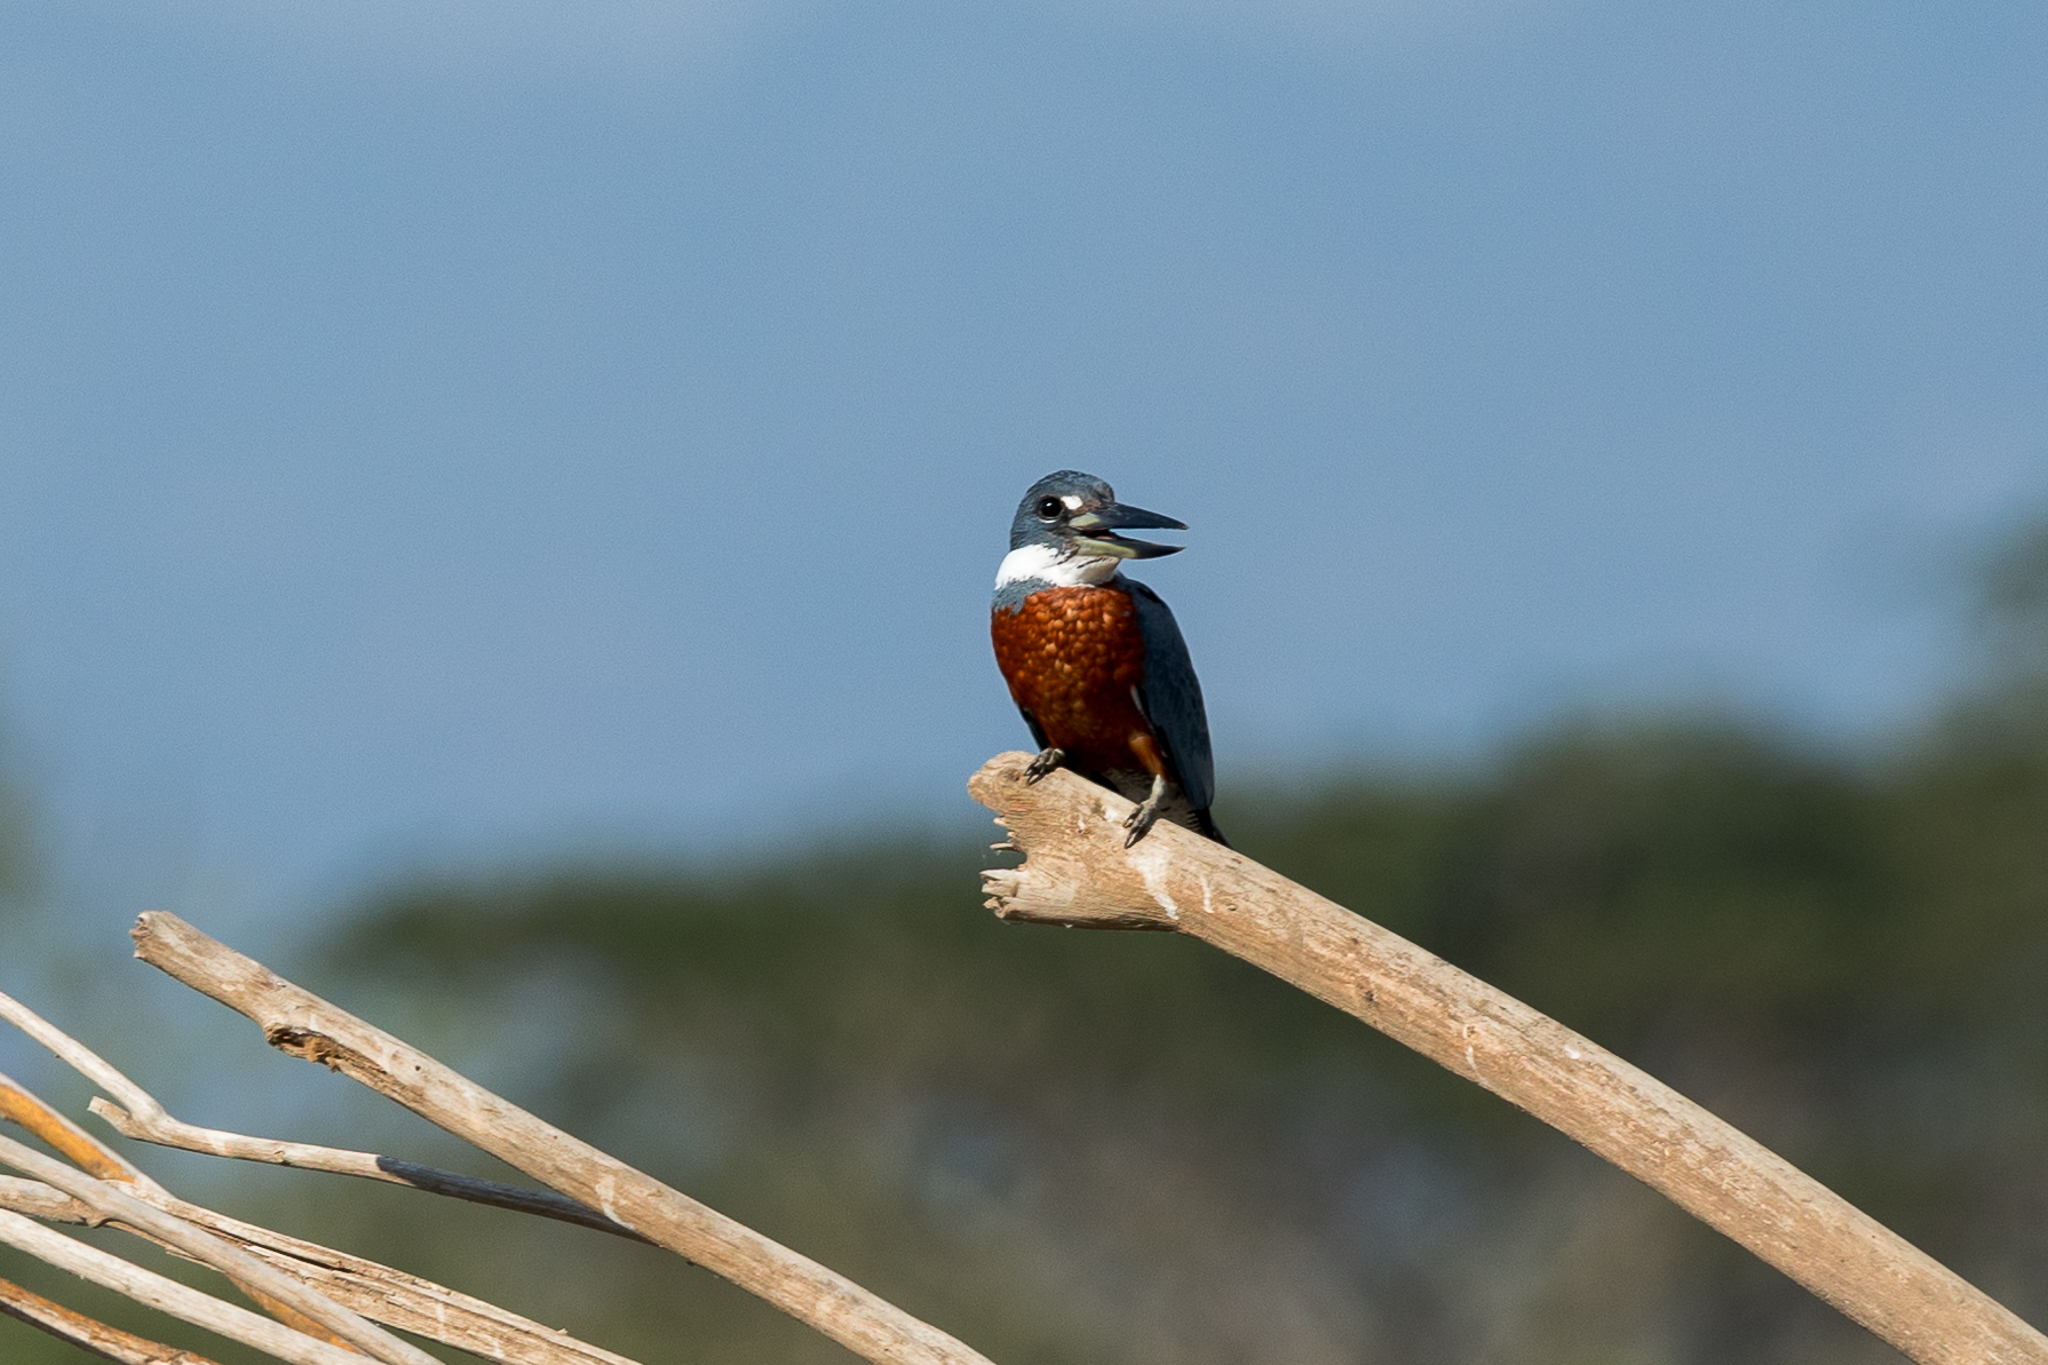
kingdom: Animalia
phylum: Chordata
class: Aves
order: Coraciiformes
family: Alcedinidae
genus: Megaceryle
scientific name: Megaceryle torquata
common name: Ringed kingfisher
